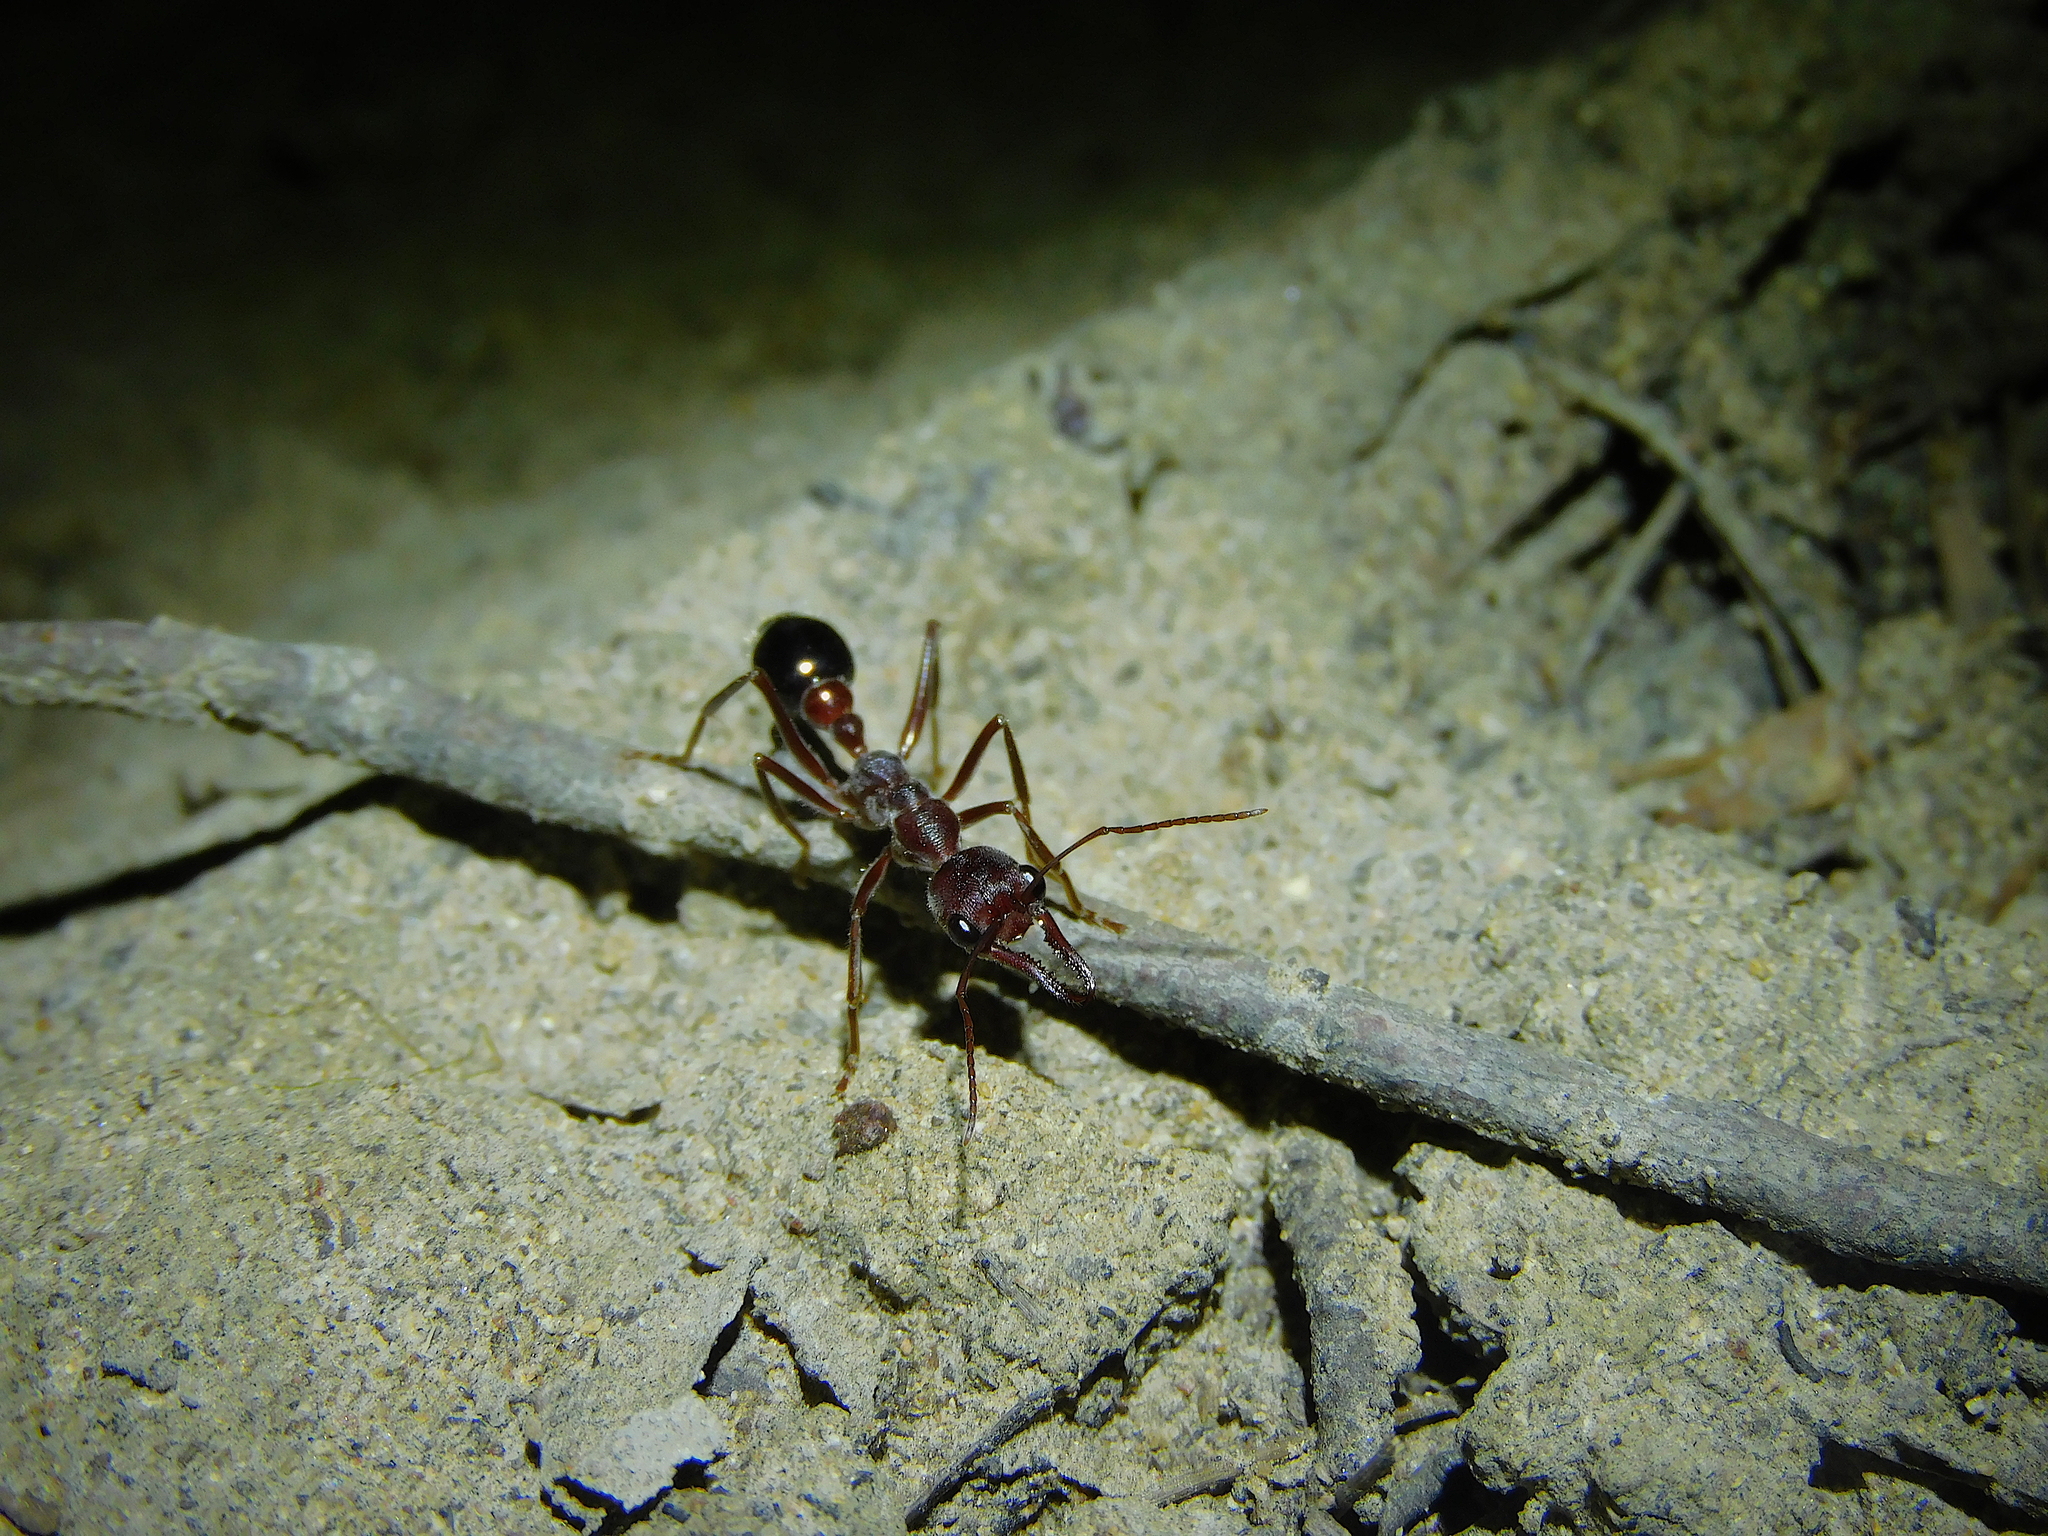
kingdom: Animalia
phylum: Arthropoda
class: Insecta
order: Hymenoptera
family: Formicidae
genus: Myrmecia
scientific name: Myrmecia forficata
